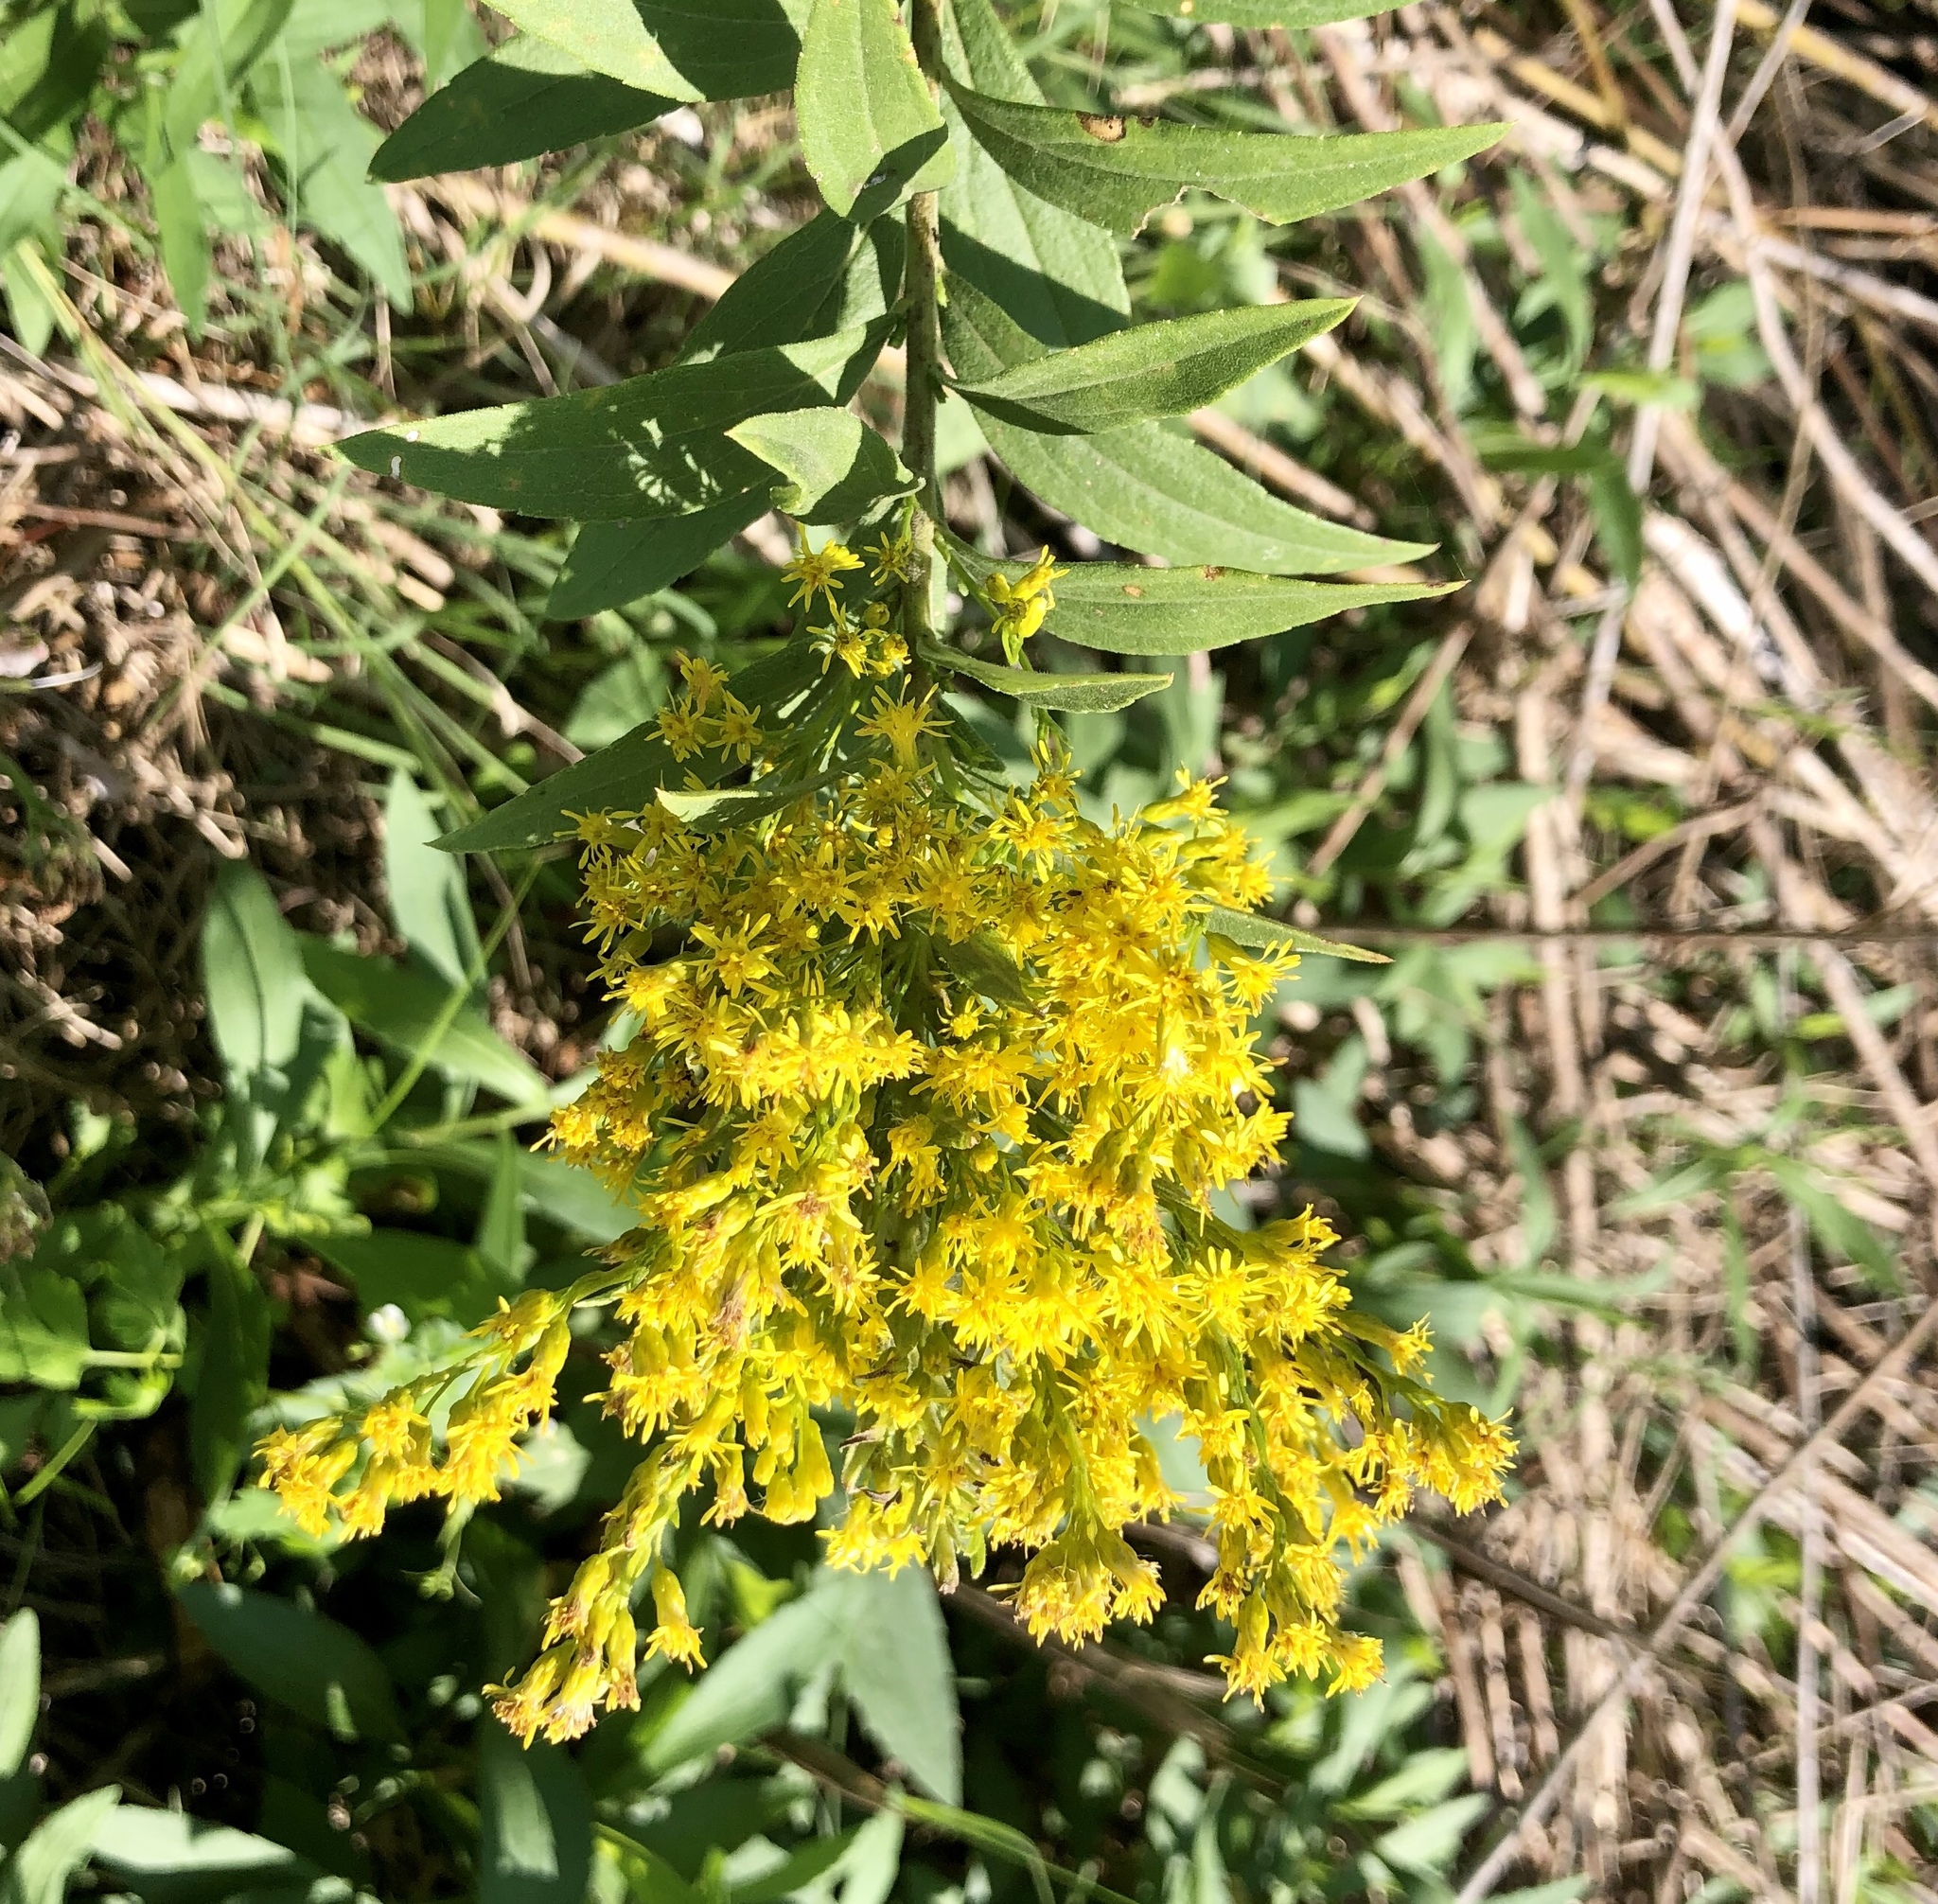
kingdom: Plantae
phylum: Tracheophyta
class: Magnoliopsida
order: Asterales
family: Asteraceae
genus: Solidago
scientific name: Solidago gigantea
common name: Giant goldenrod
